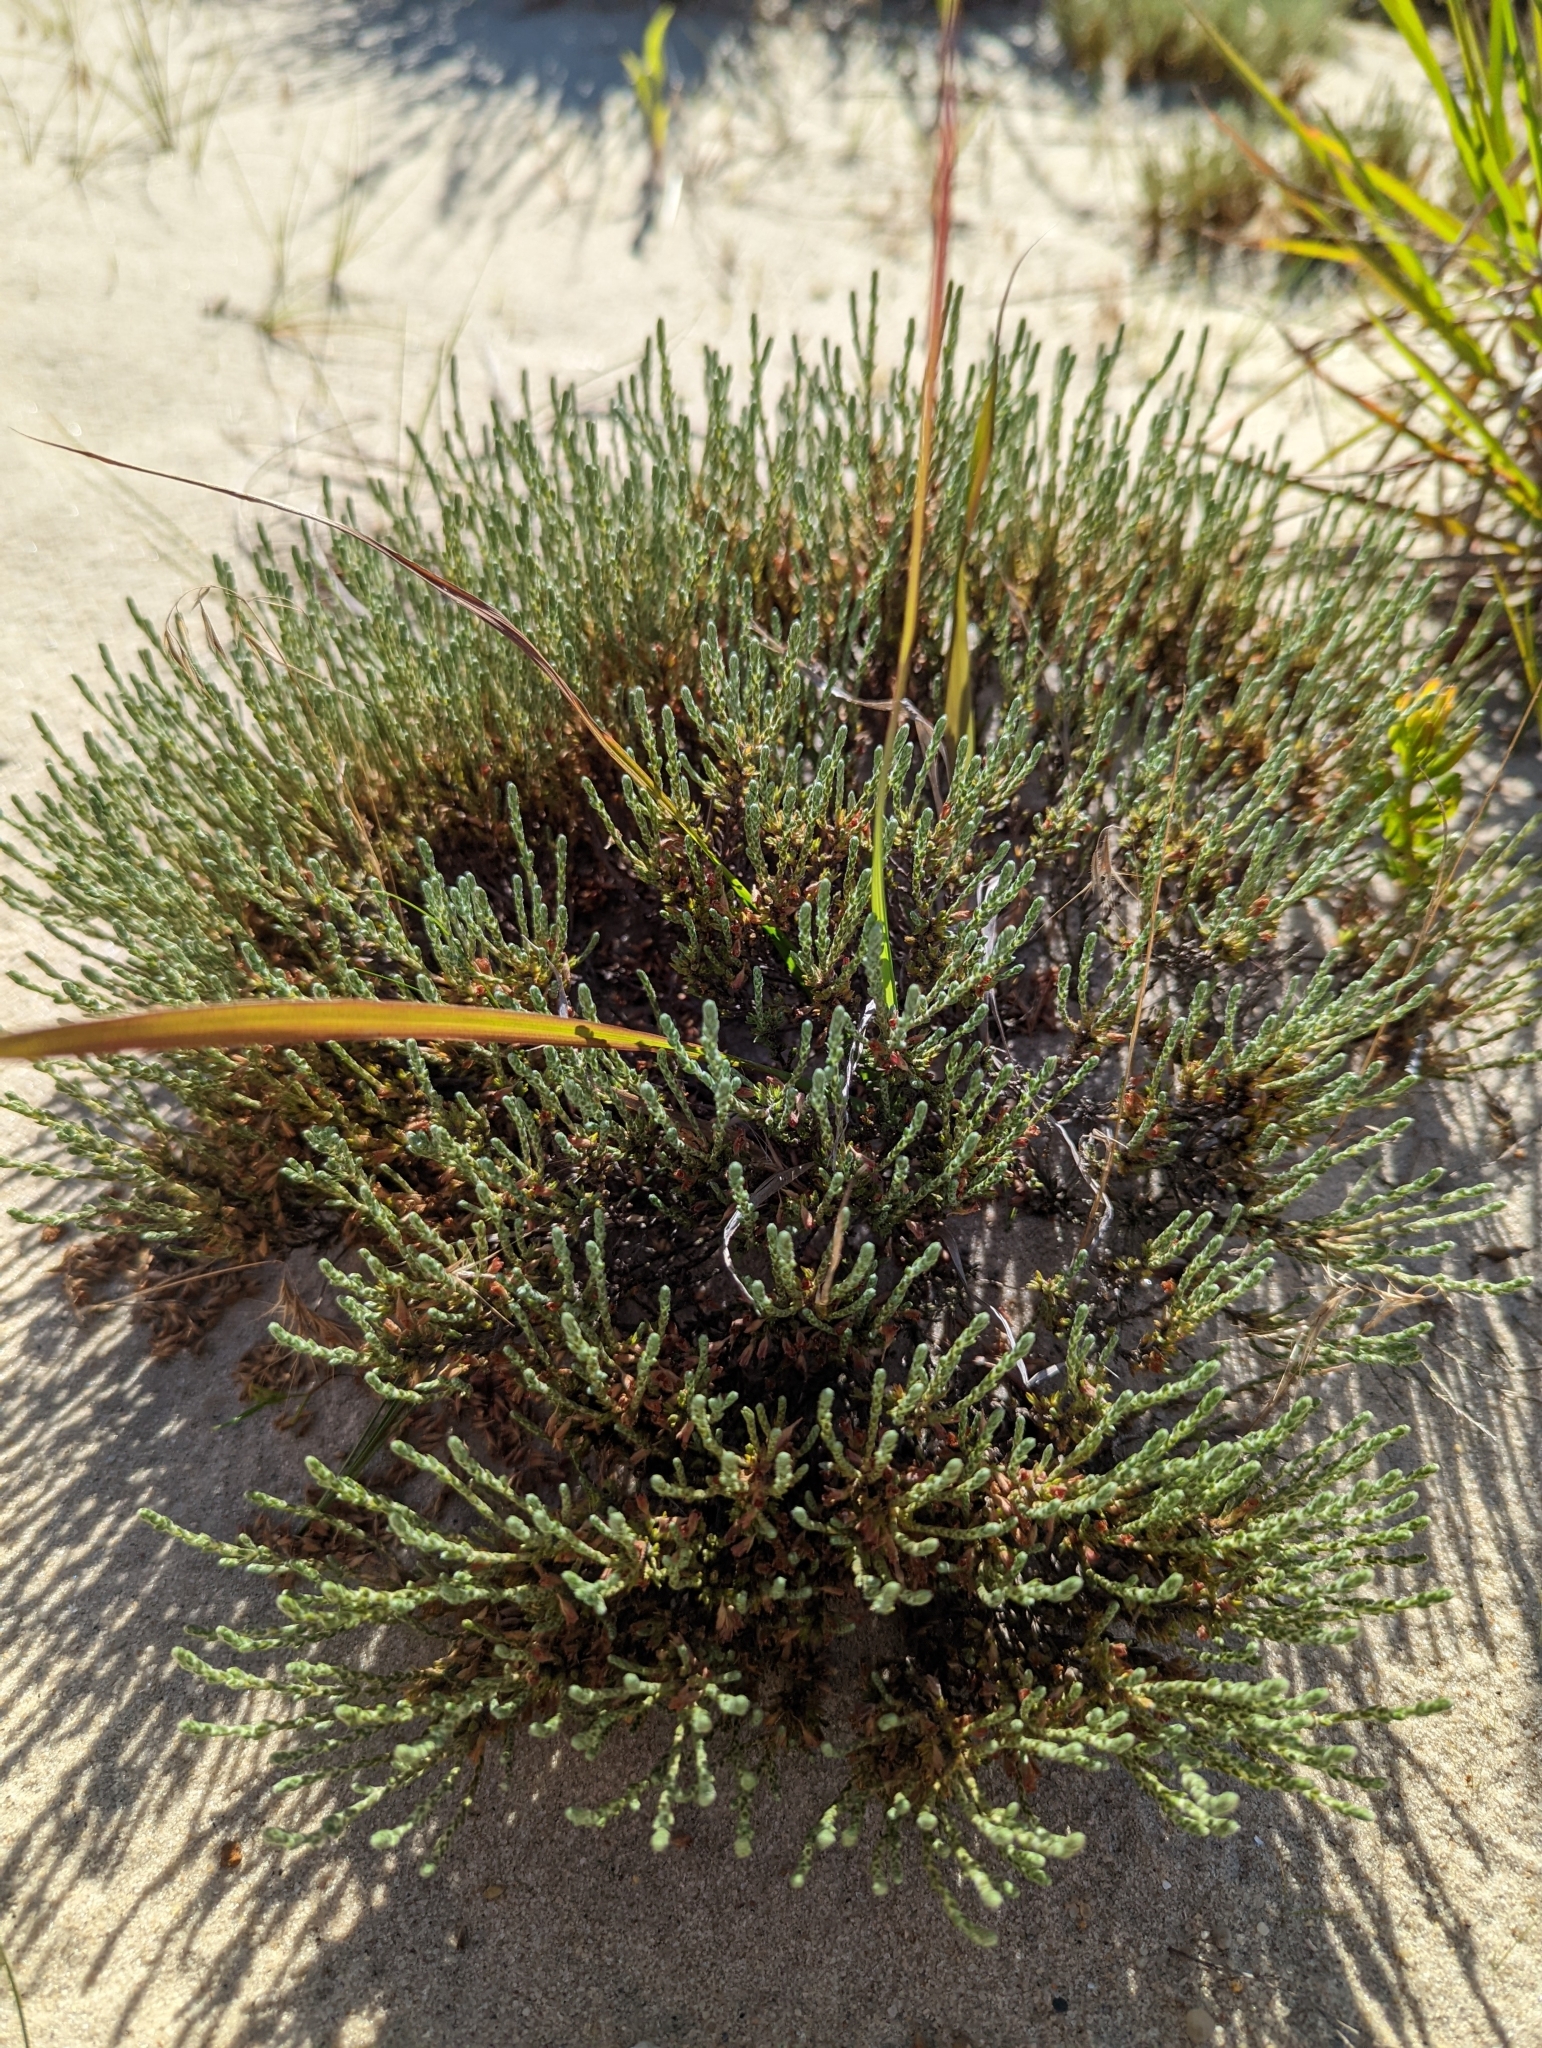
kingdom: Plantae
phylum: Tracheophyta
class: Magnoliopsida
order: Malvales
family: Cistaceae
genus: Hudsonia
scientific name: Hudsonia tomentosa
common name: Beach-heath
